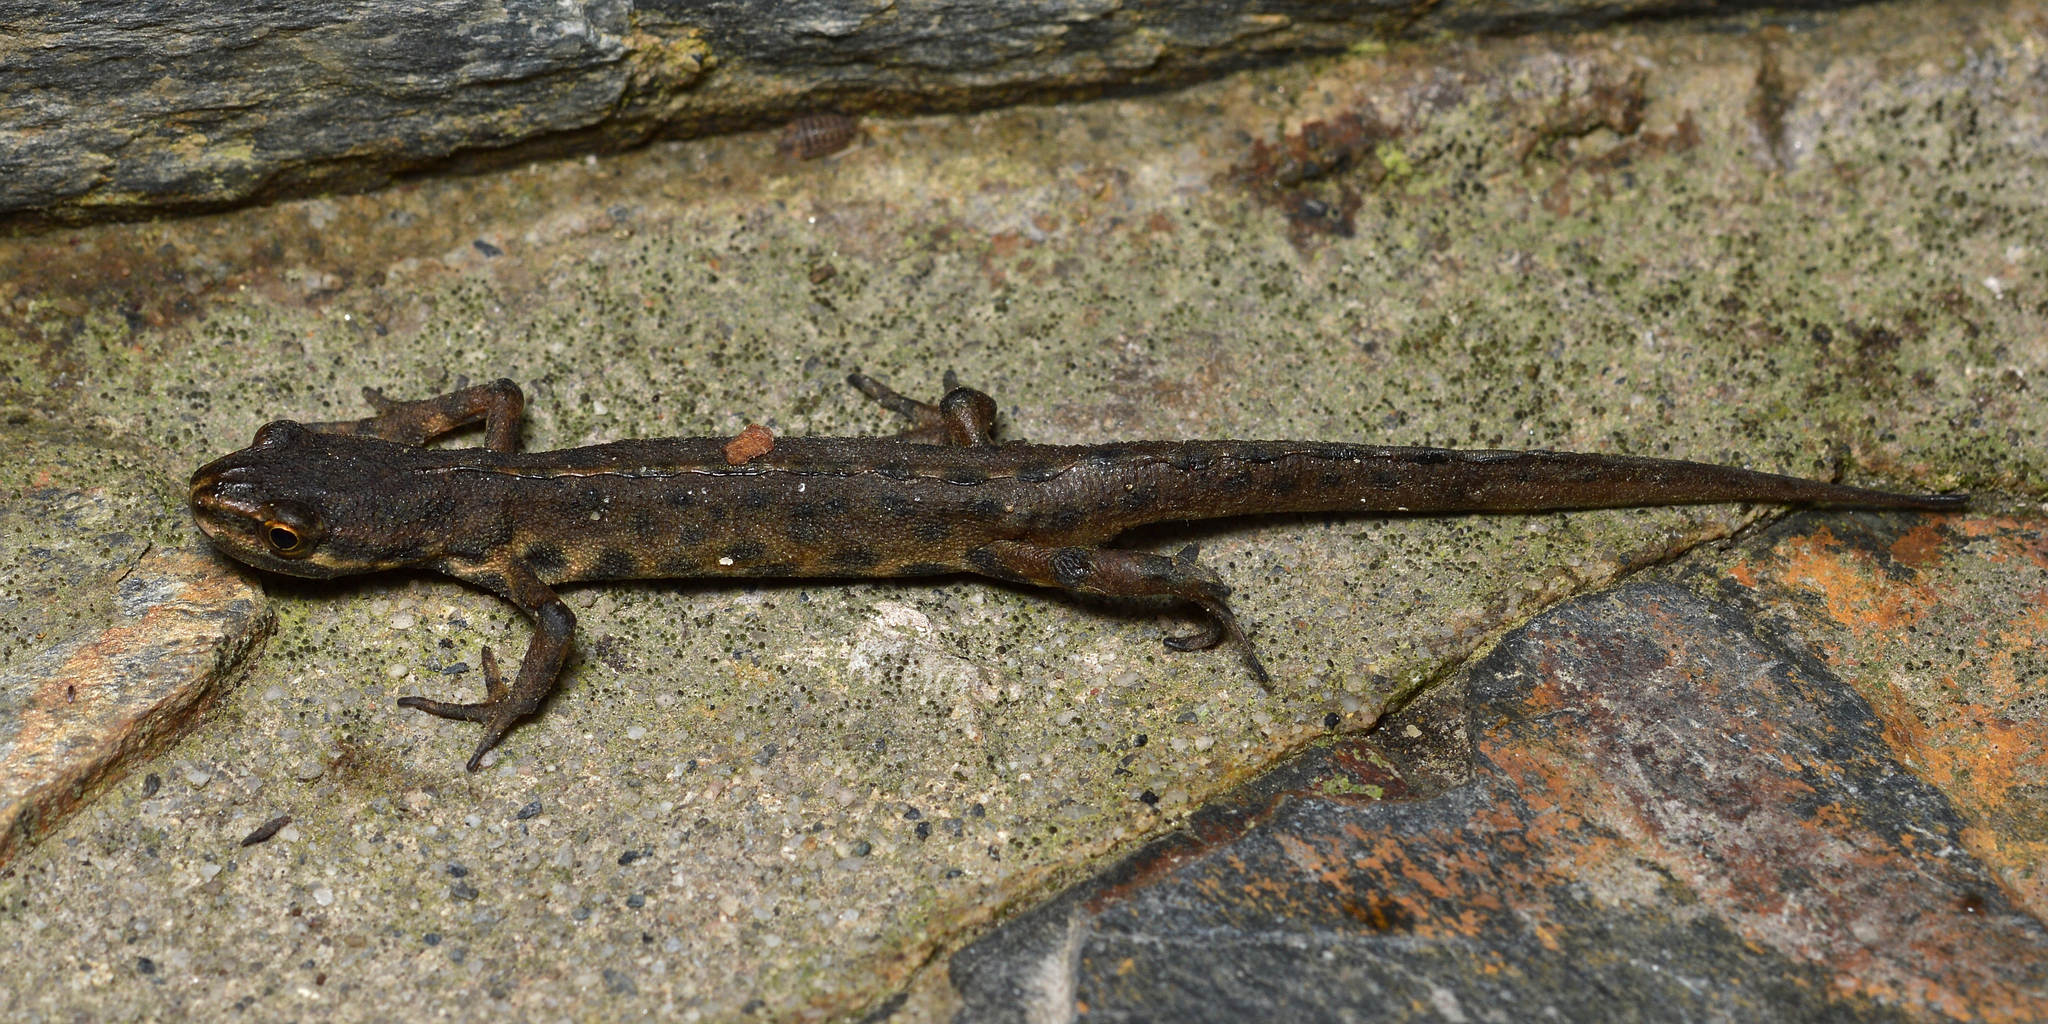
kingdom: Animalia
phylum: Chordata
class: Amphibia
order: Caudata
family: Salamandridae
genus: Lissotriton
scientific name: Lissotriton vulgaris
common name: Smooth newt
